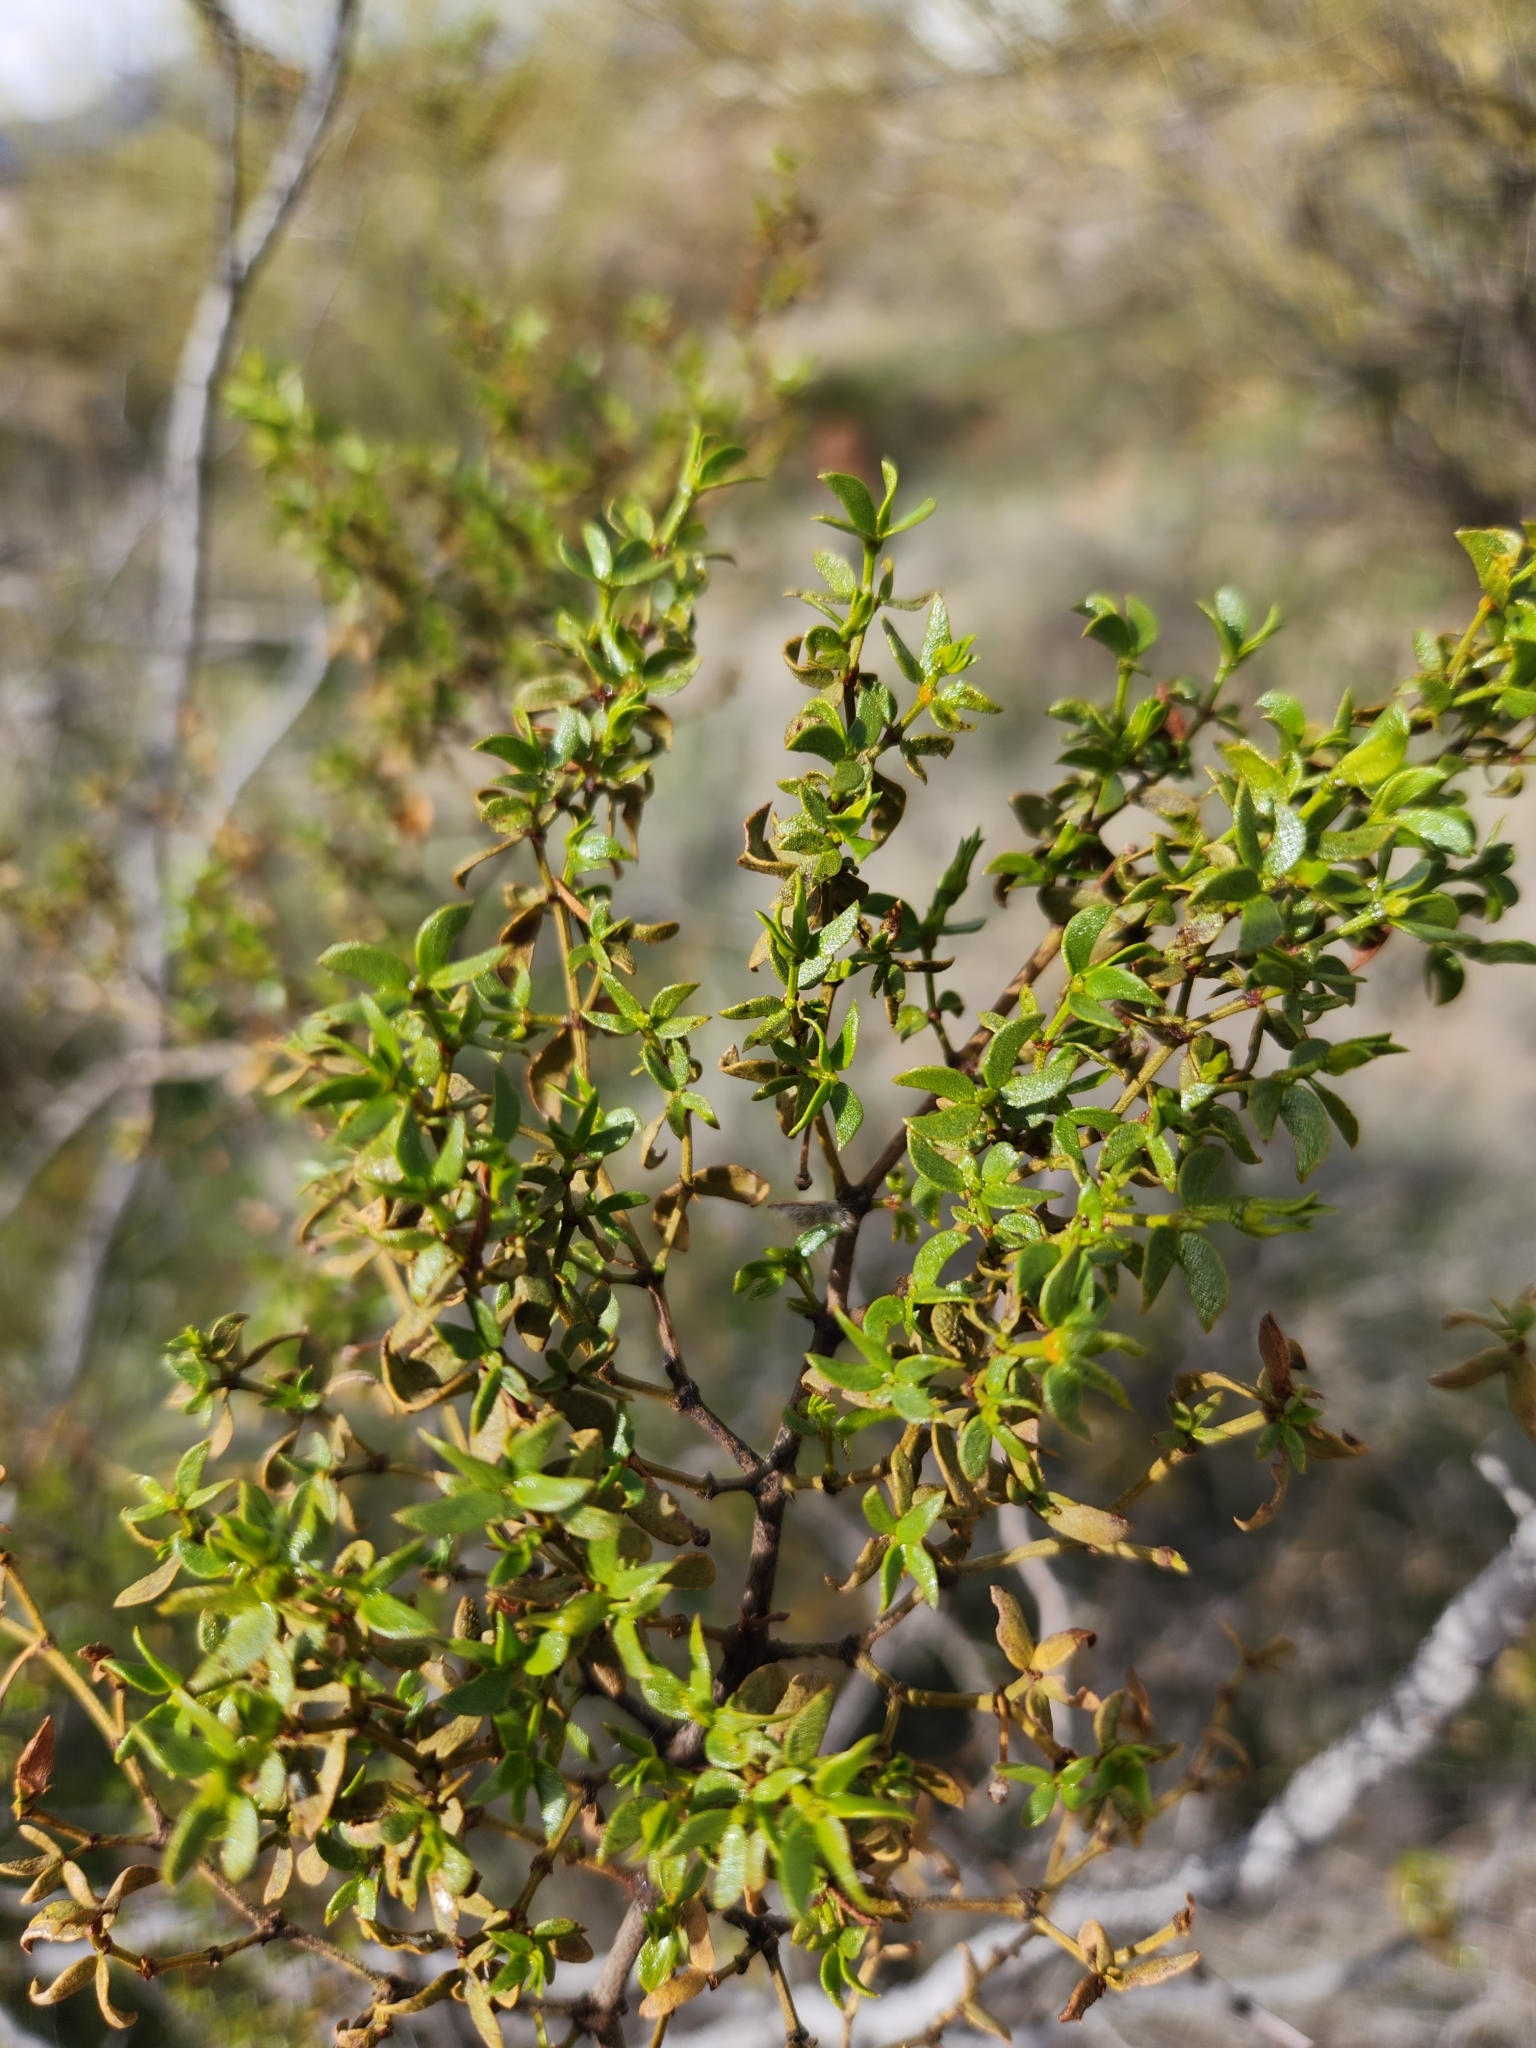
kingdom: Plantae
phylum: Tracheophyta
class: Magnoliopsida
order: Zygophyllales
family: Zygophyllaceae
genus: Larrea
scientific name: Larrea tridentata
